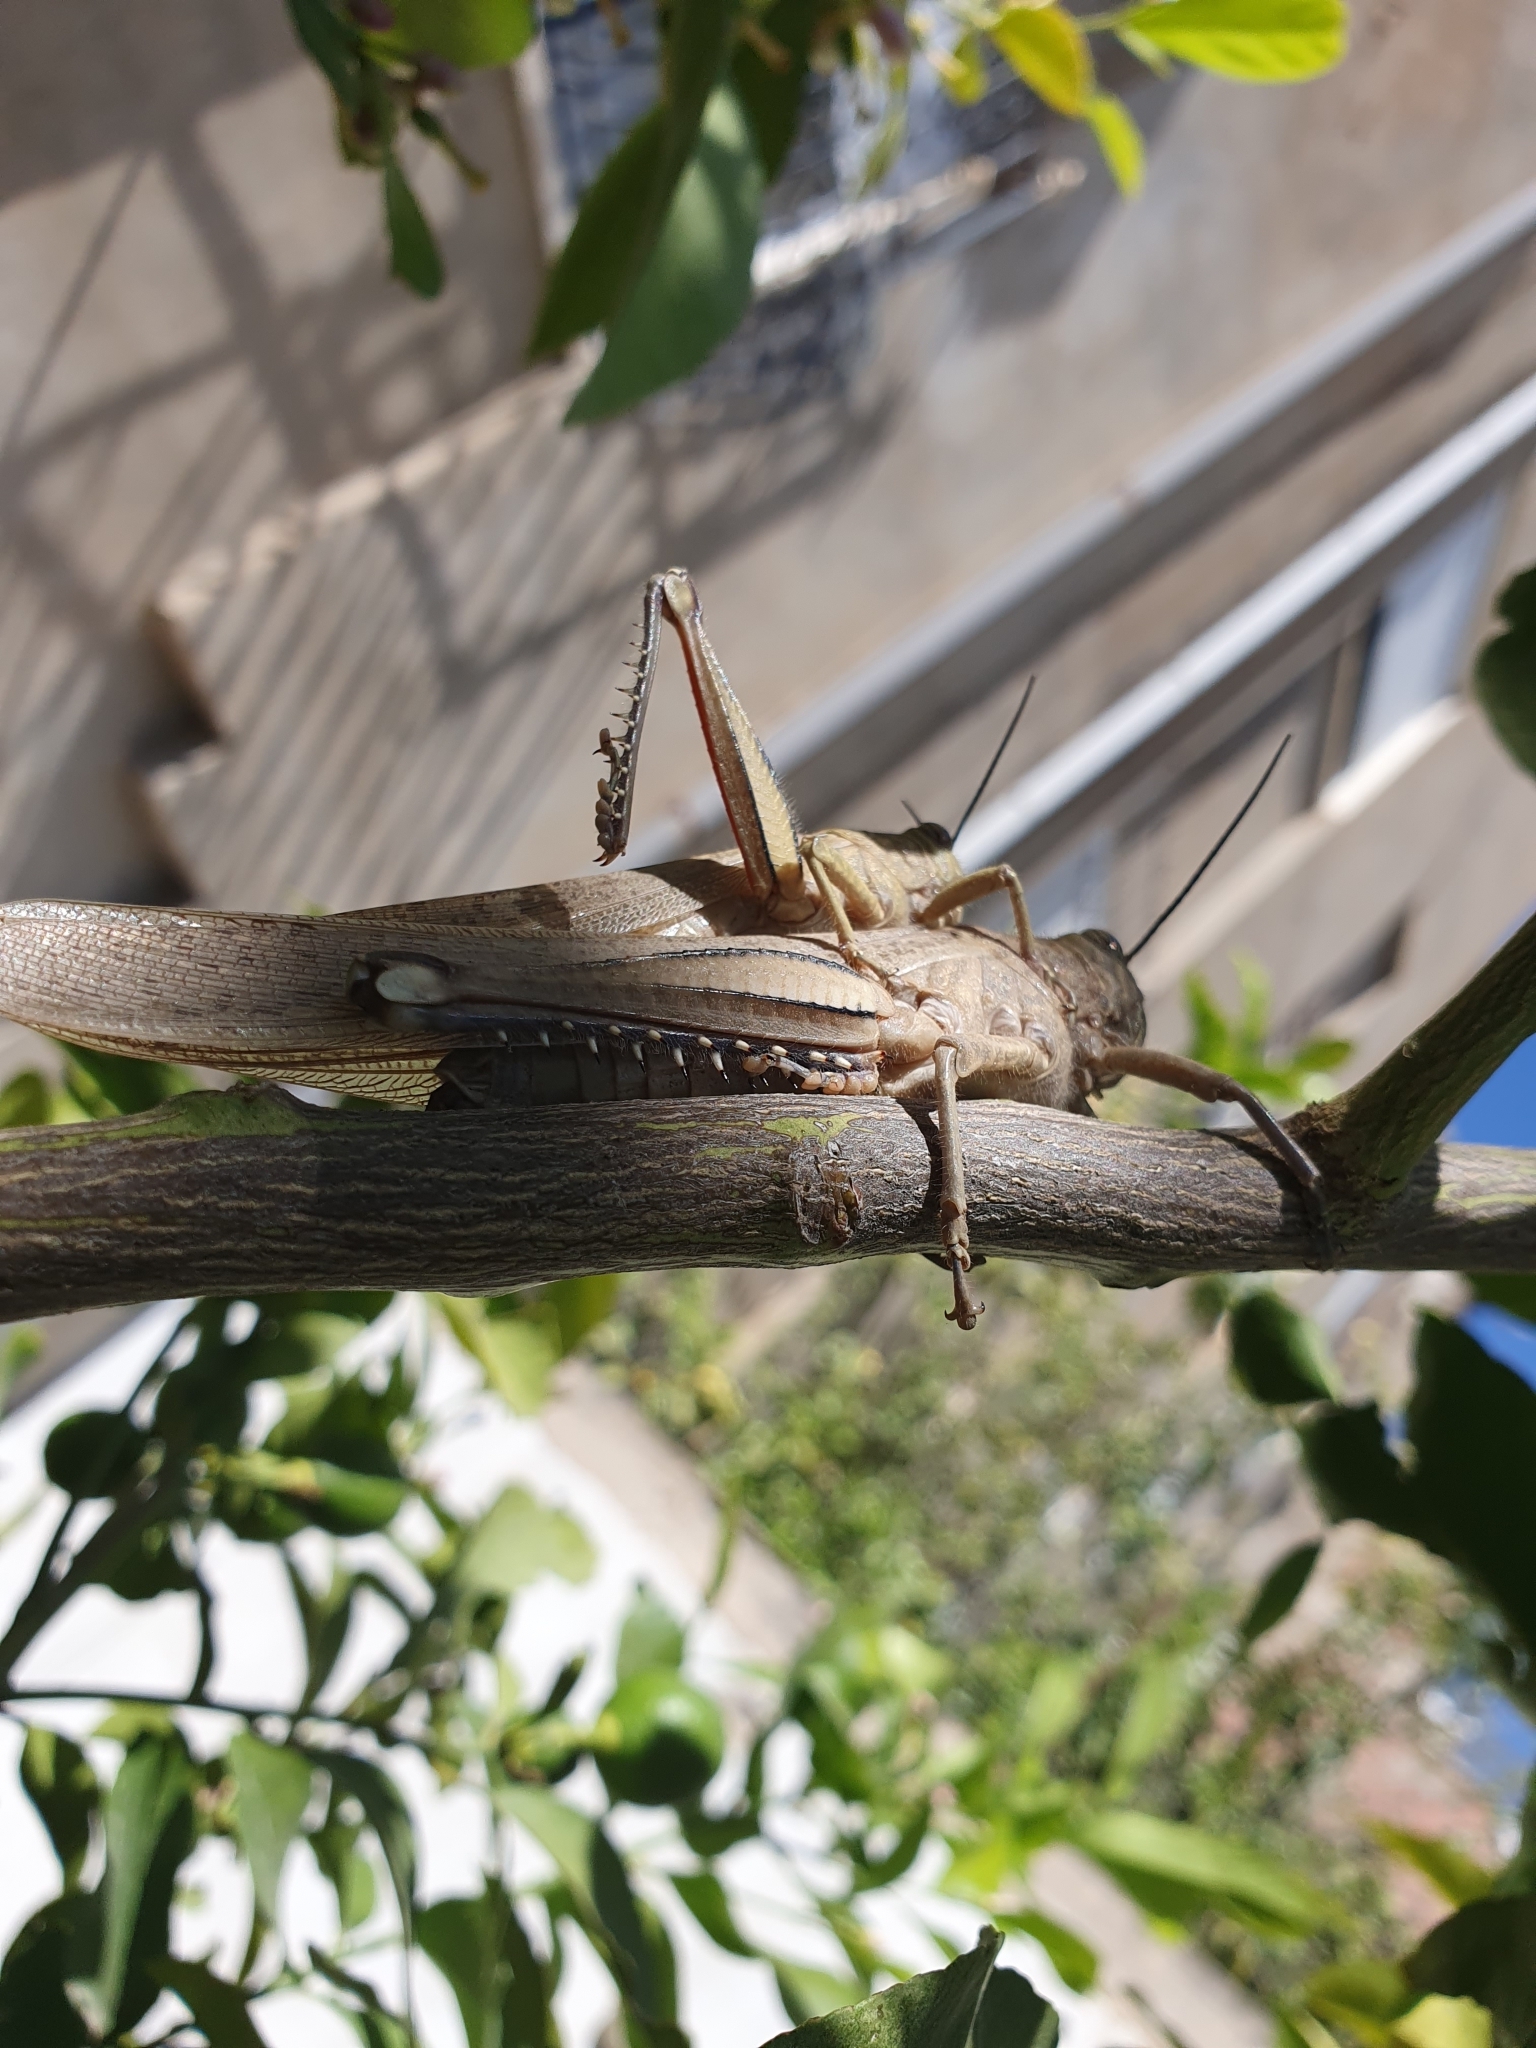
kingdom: Animalia
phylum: Arthropoda
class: Insecta
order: Orthoptera
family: Acrididae
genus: Anacridium
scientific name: Anacridium aegyptium
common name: Egyptian grasshopper
